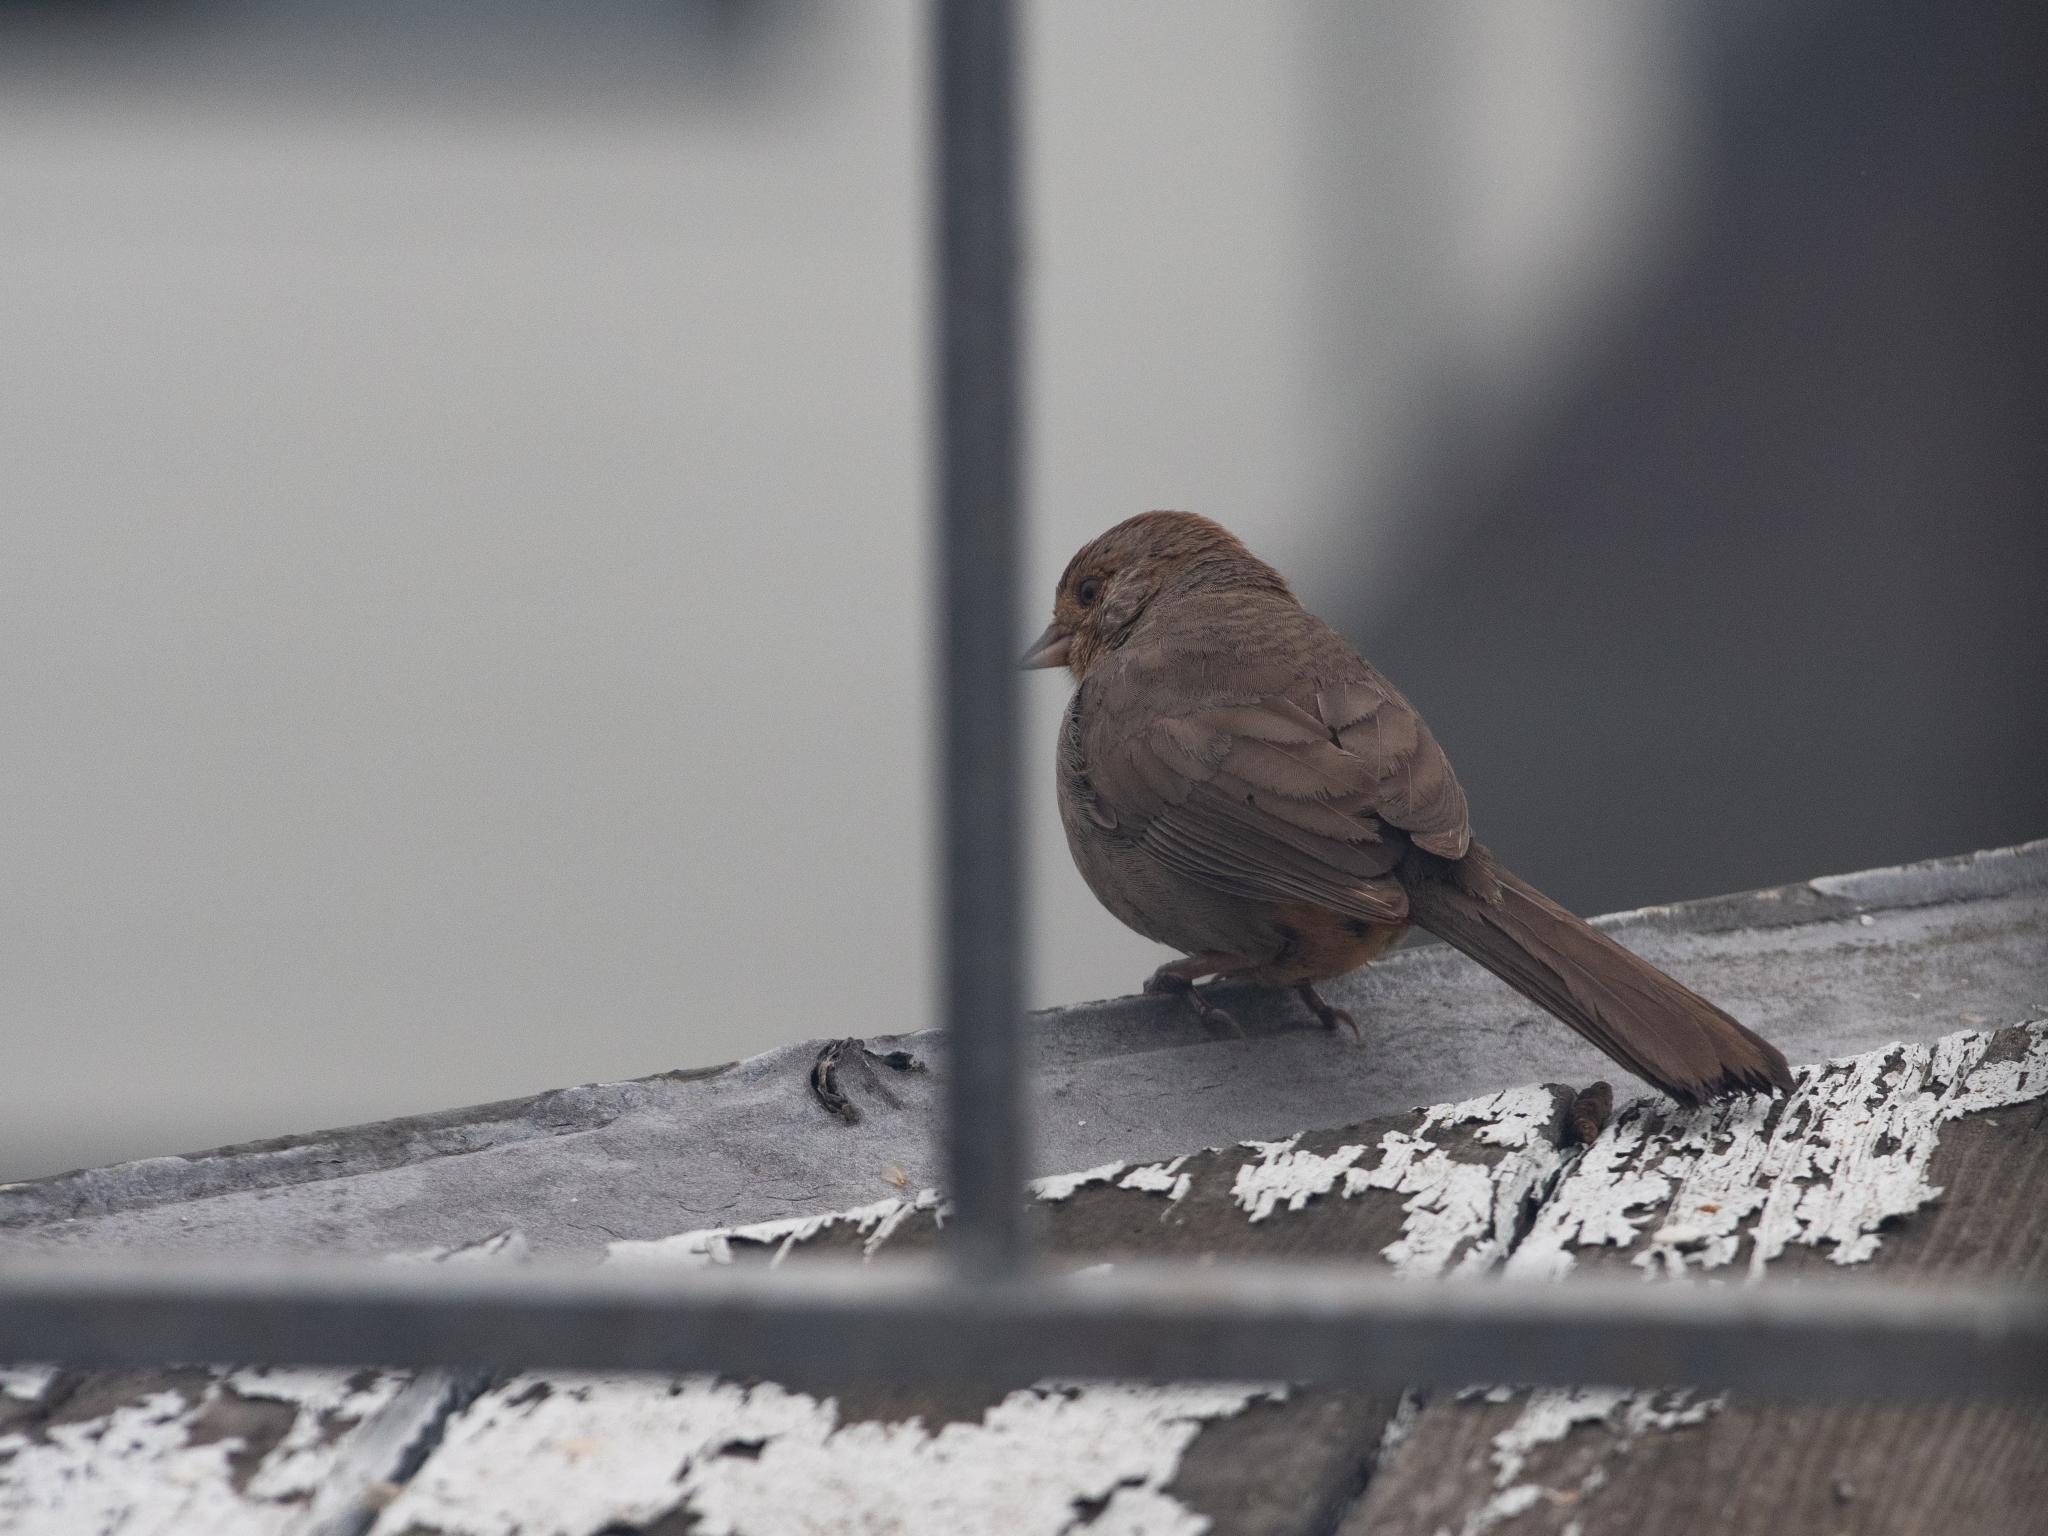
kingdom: Animalia
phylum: Chordata
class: Aves
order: Passeriformes
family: Passerellidae
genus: Melozone
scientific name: Melozone crissalis
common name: California towhee
